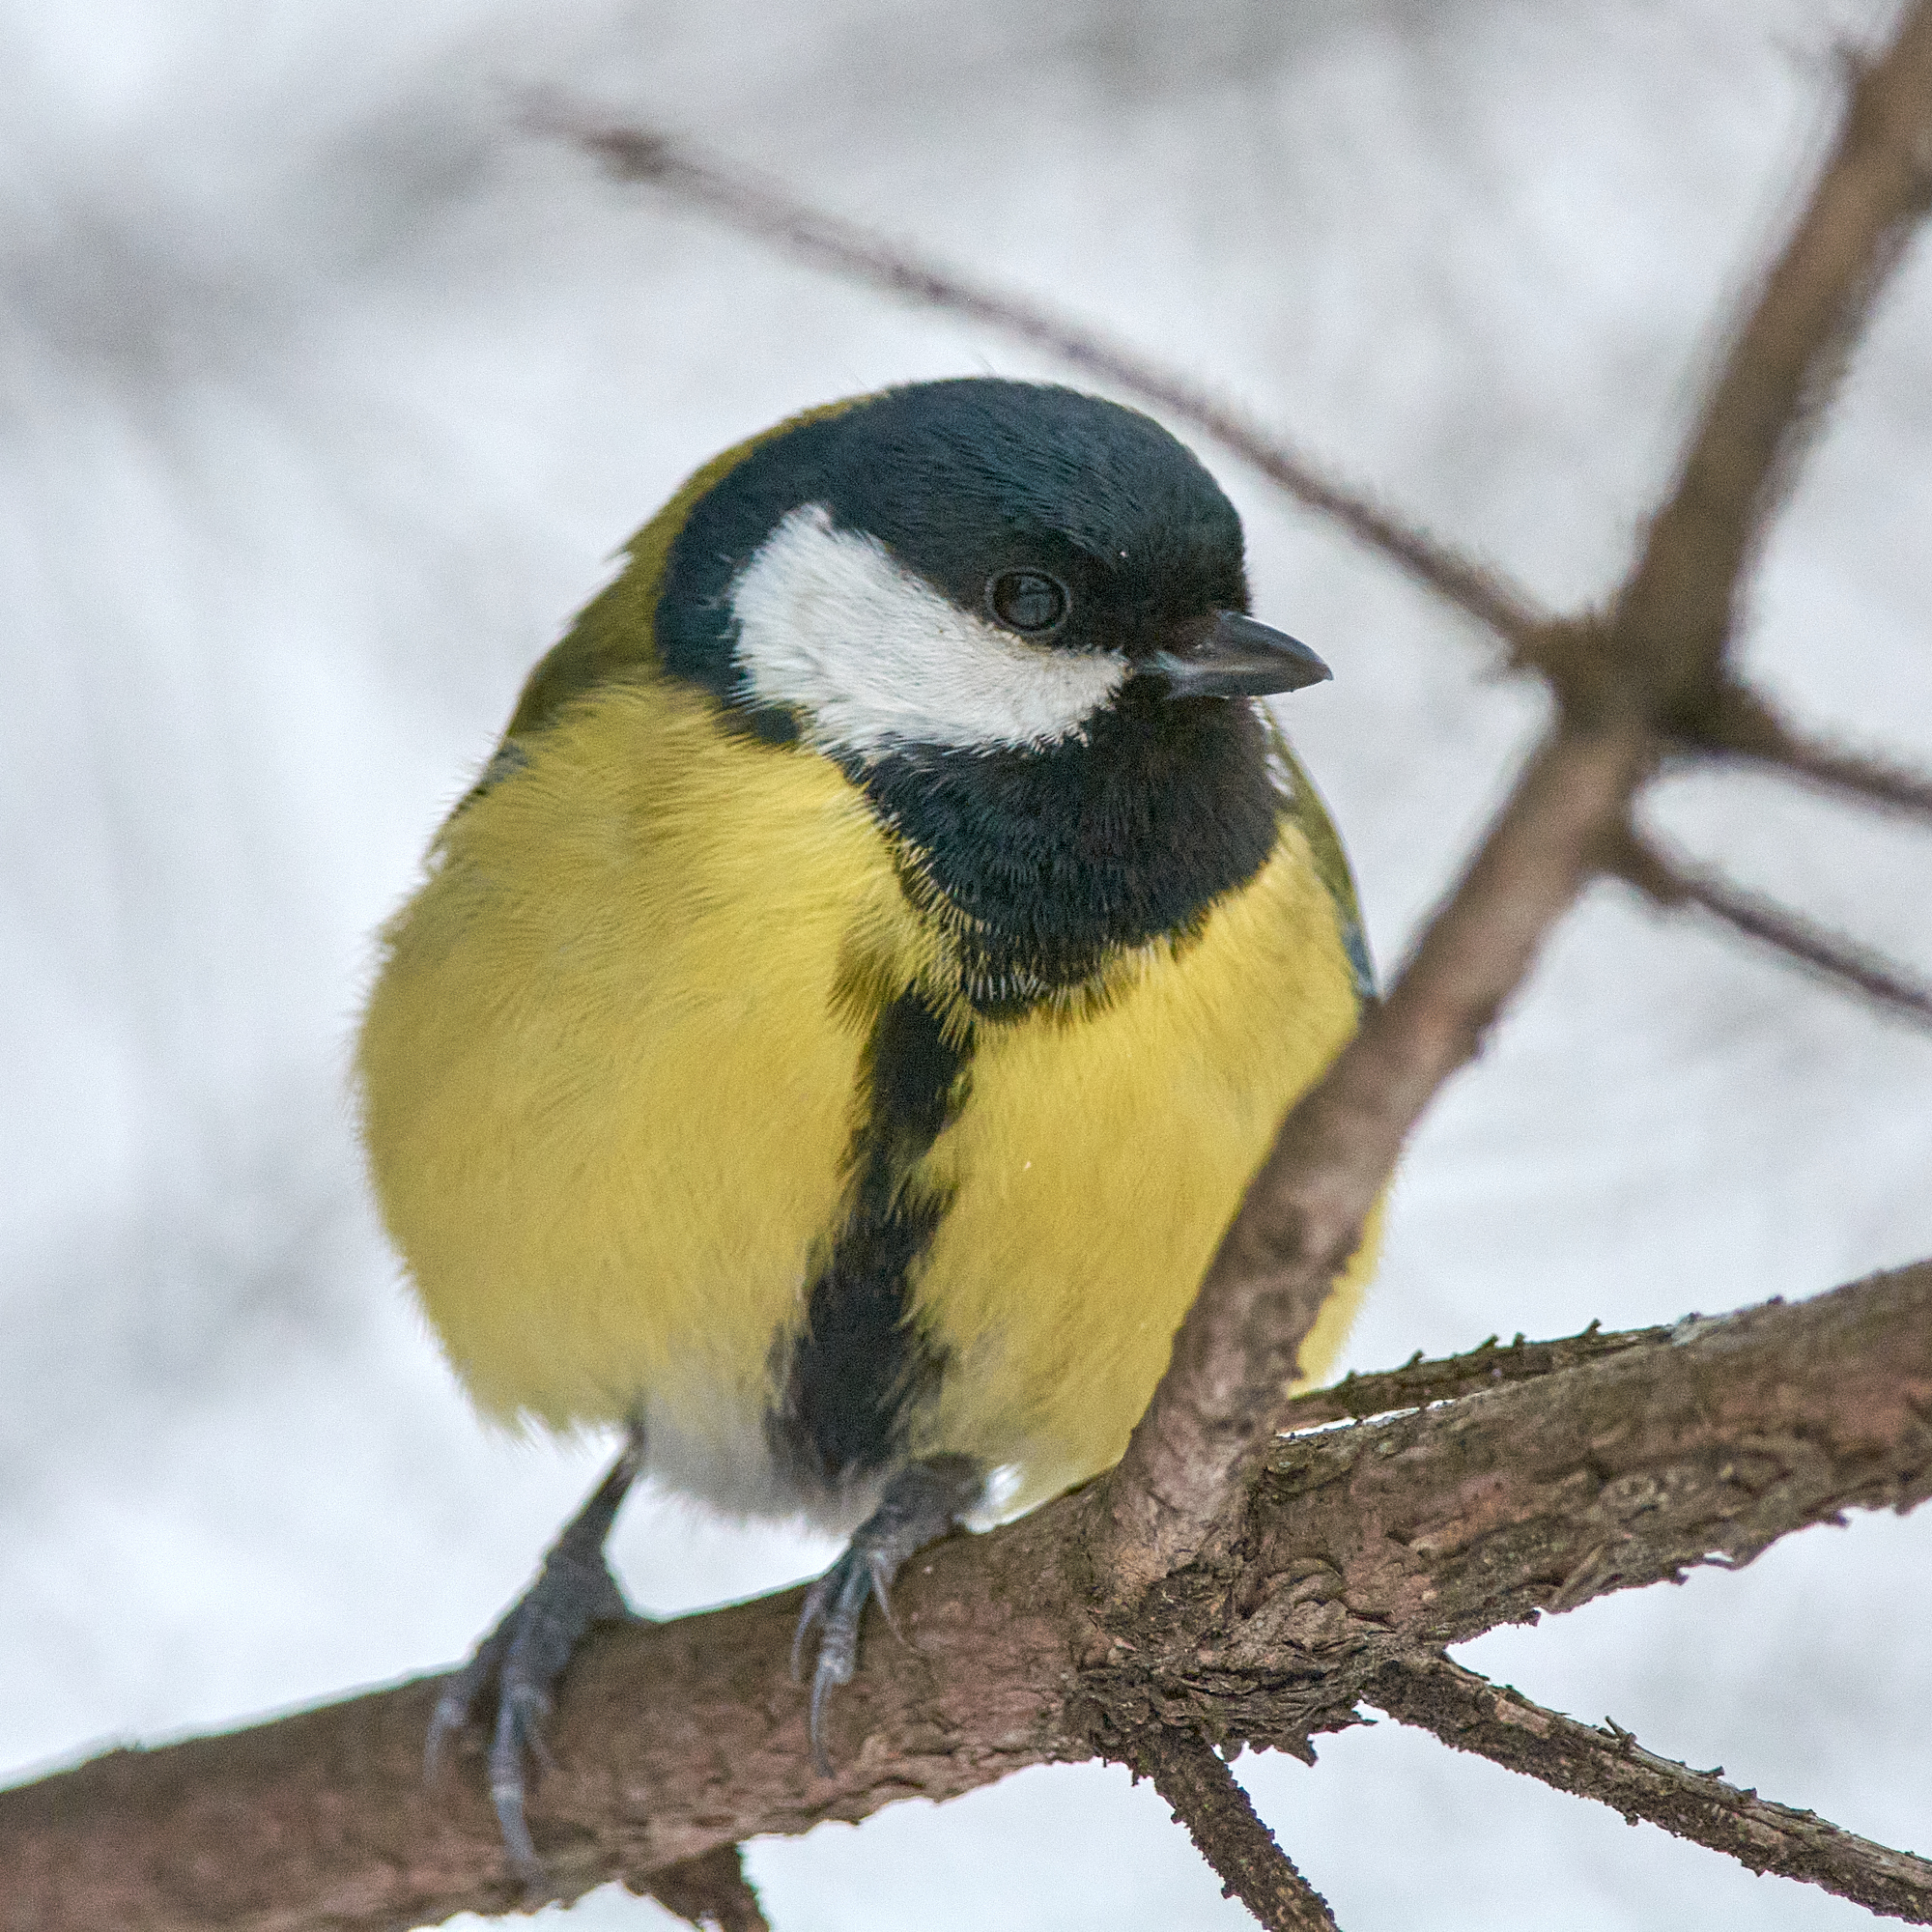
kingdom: Animalia
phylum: Chordata
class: Aves
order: Passeriformes
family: Paridae
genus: Parus
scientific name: Parus major
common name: Great tit
